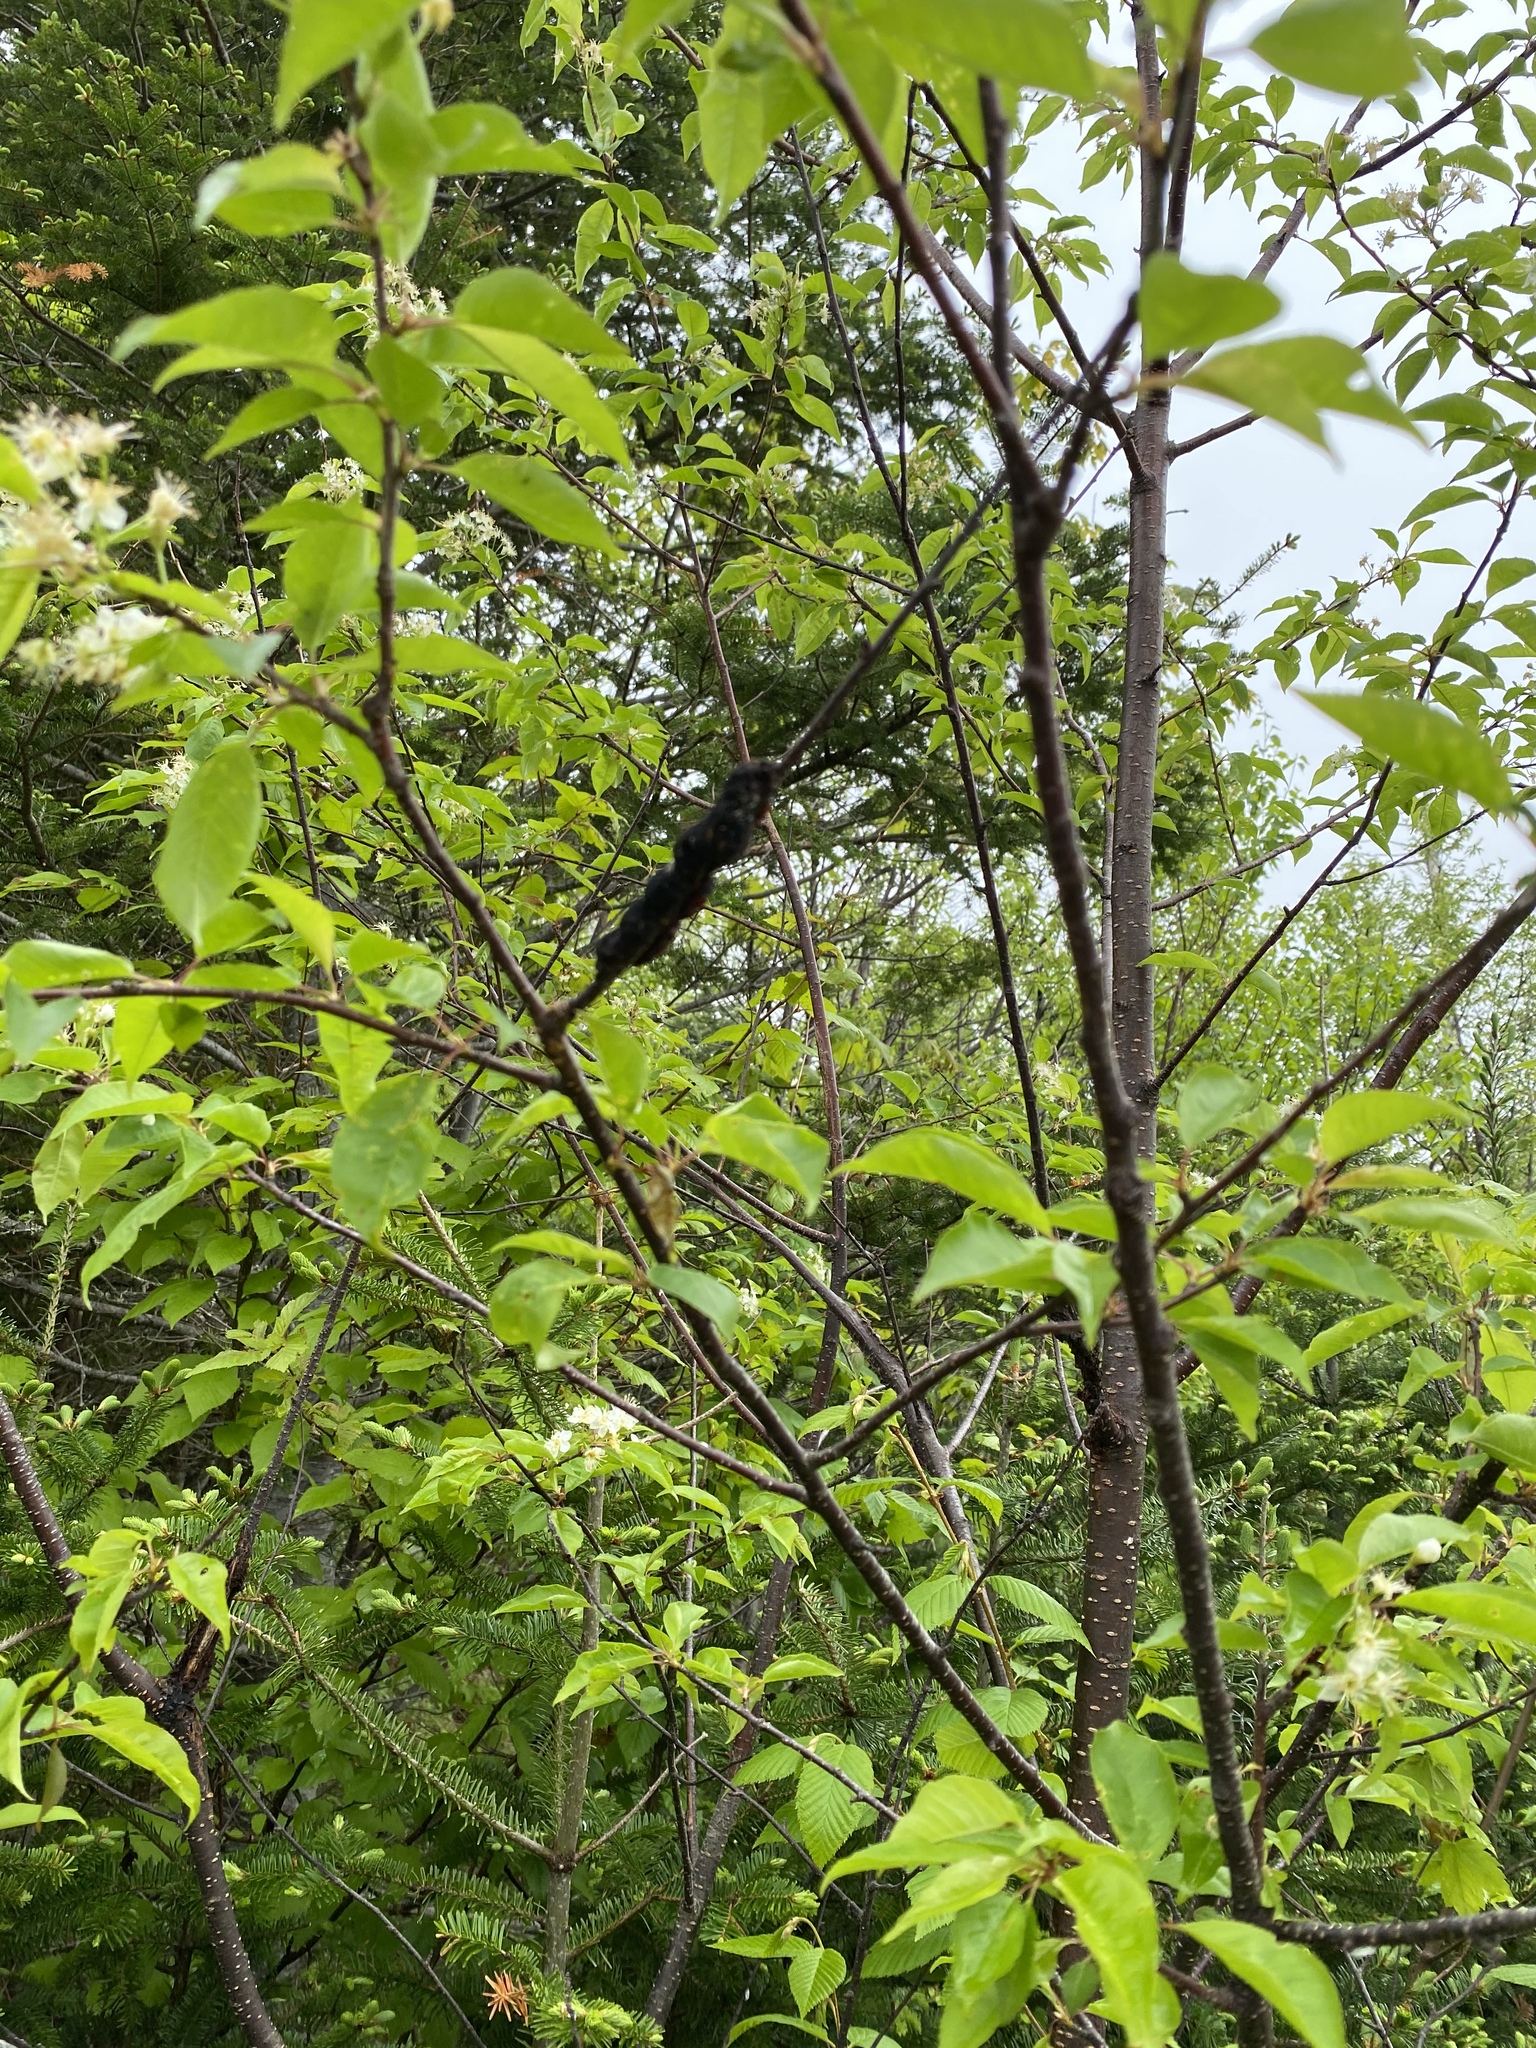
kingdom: Fungi
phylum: Ascomycota
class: Dothideomycetes
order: Venturiales
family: Venturiaceae
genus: Apiosporina
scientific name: Apiosporina morbosa
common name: Black knot
